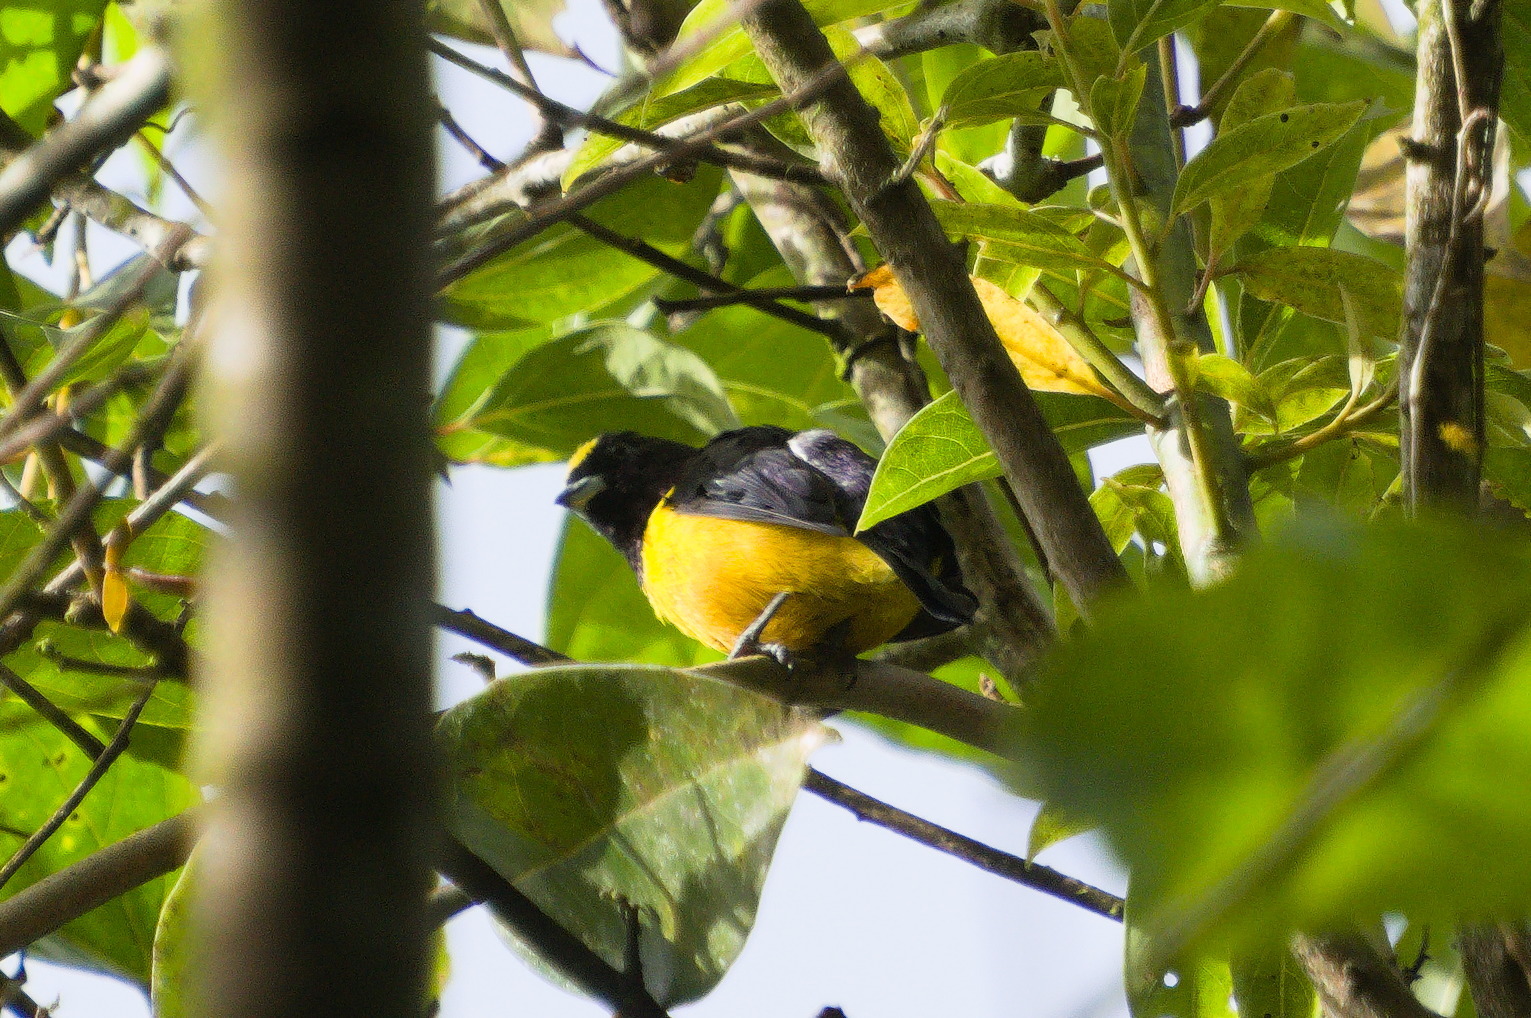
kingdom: Animalia
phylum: Chordata
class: Aves
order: Passeriformes
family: Fringillidae
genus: Euphonia
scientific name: Euphonia concinna
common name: Velvet-fronted euphonia
